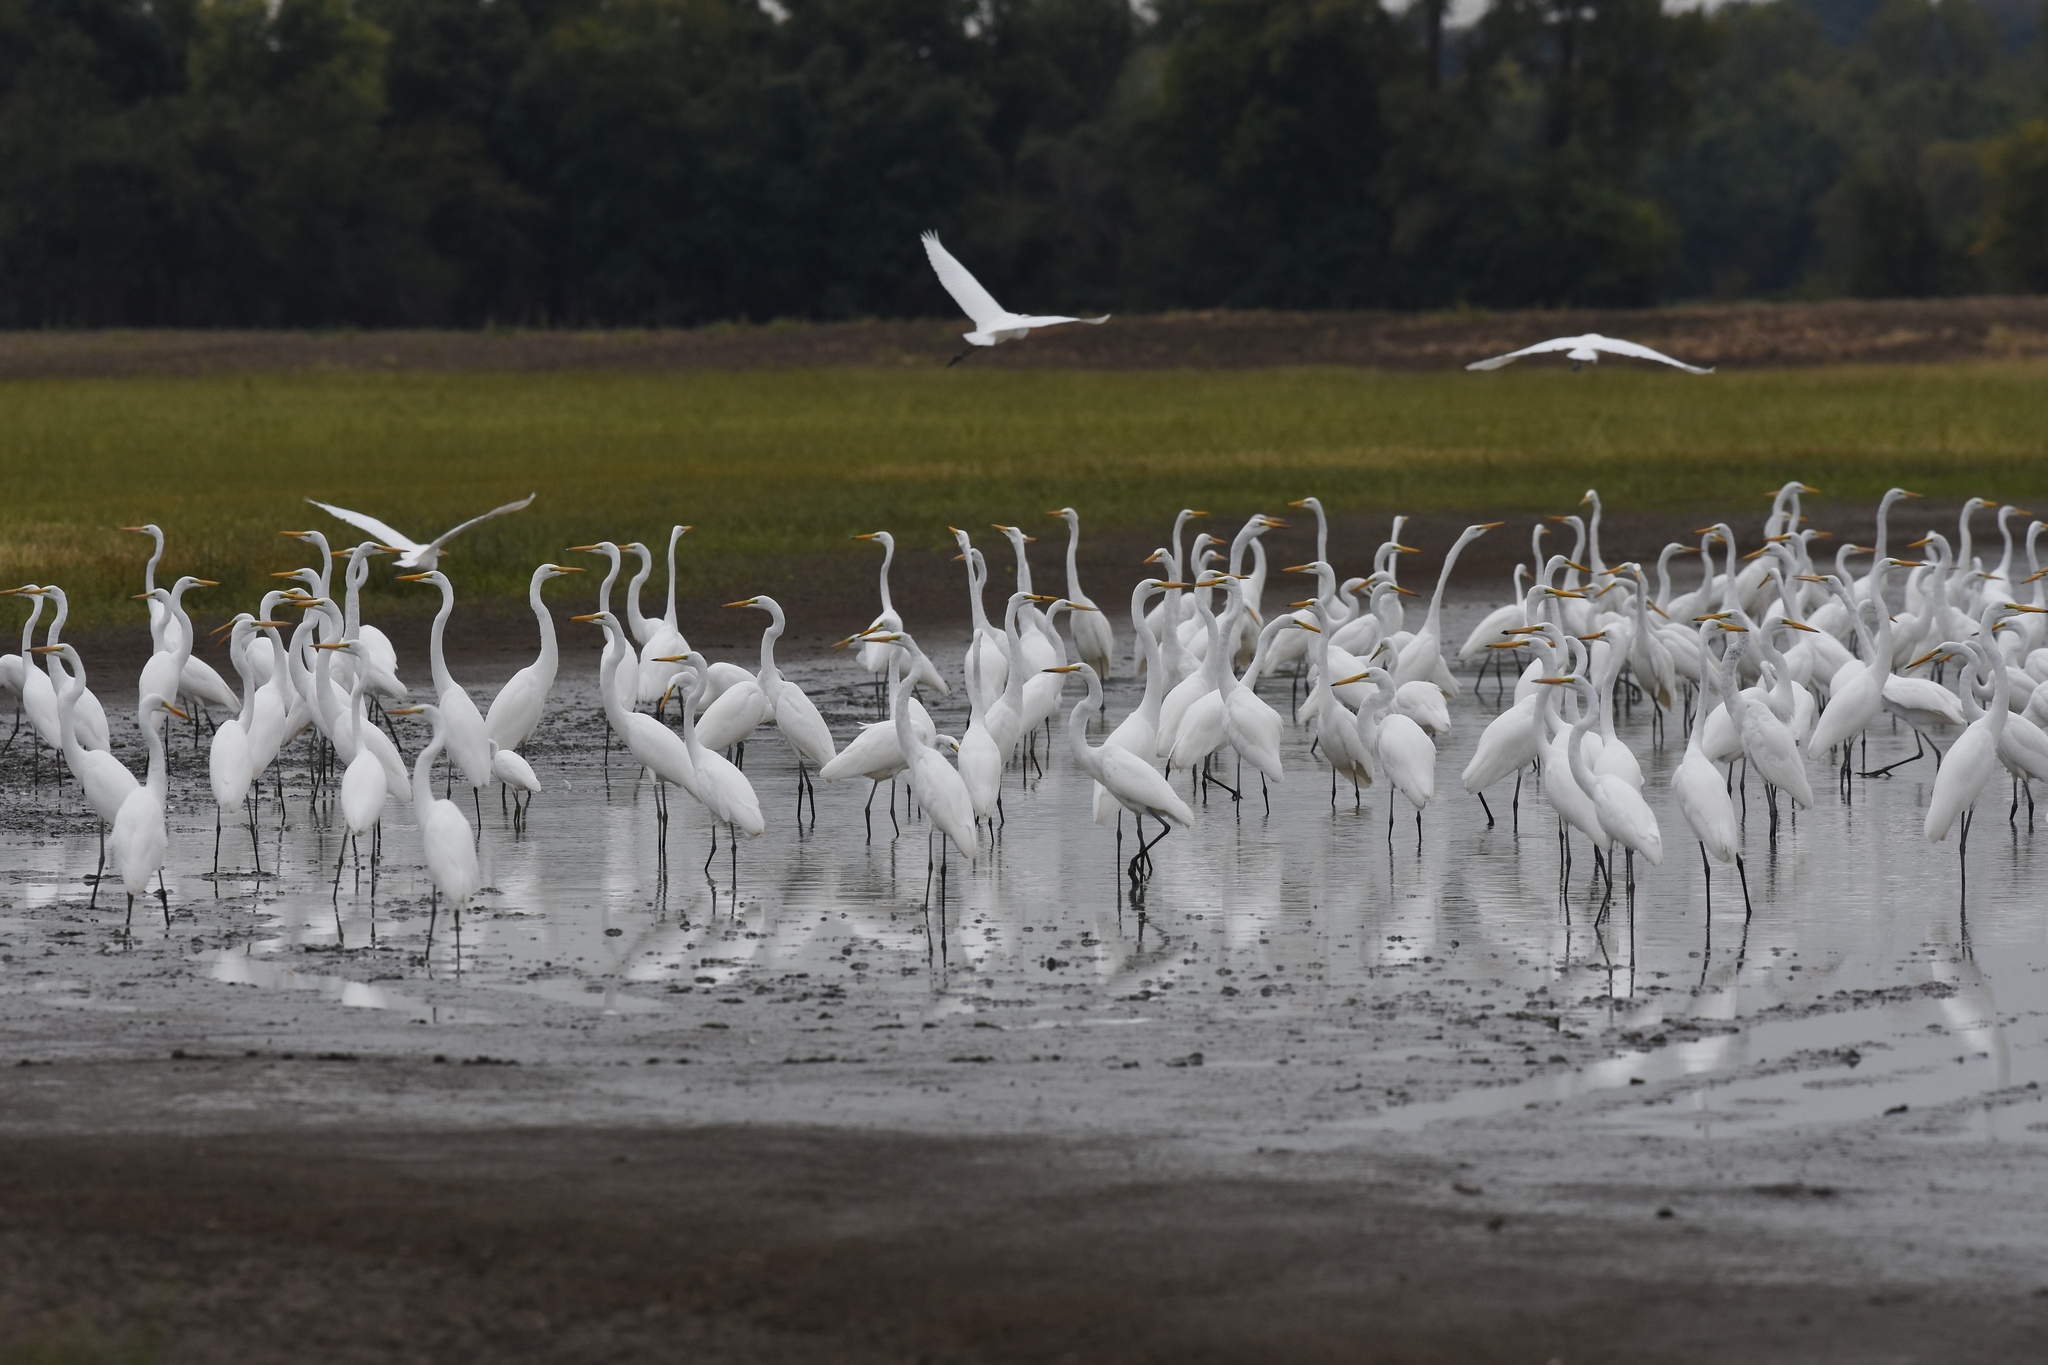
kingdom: Animalia
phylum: Chordata
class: Aves
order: Pelecaniformes
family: Ardeidae
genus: Ardea
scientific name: Ardea alba
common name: Great egret
